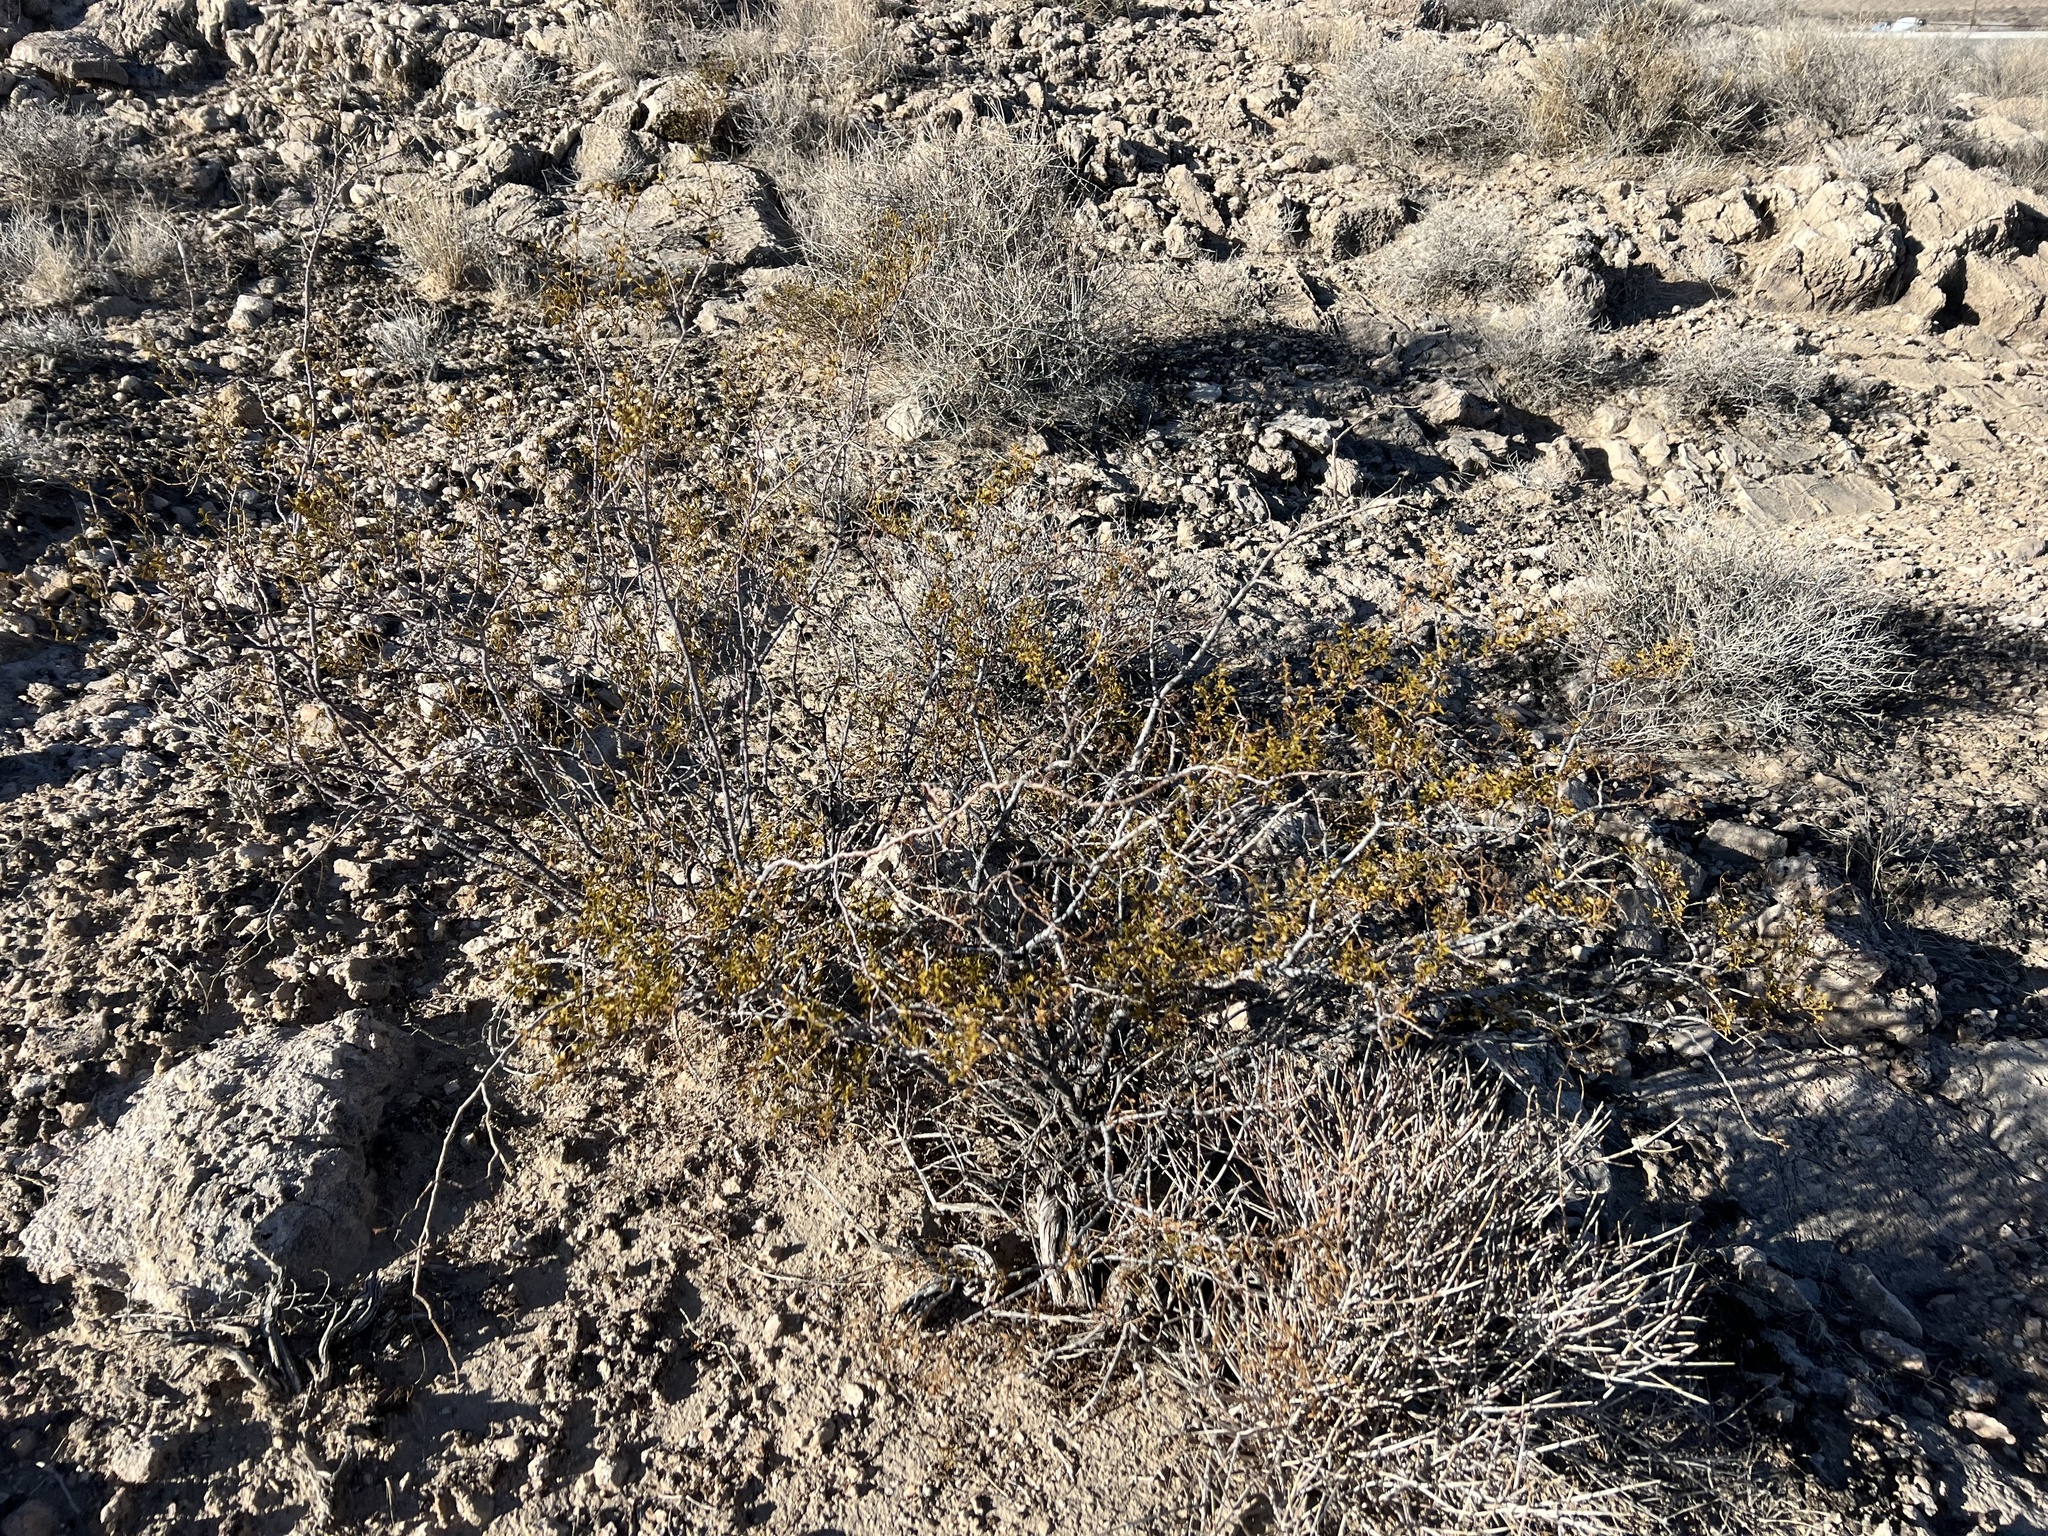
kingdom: Plantae
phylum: Tracheophyta
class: Magnoliopsida
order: Zygophyllales
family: Zygophyllaceae
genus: Larrea
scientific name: Larrea tridentata
